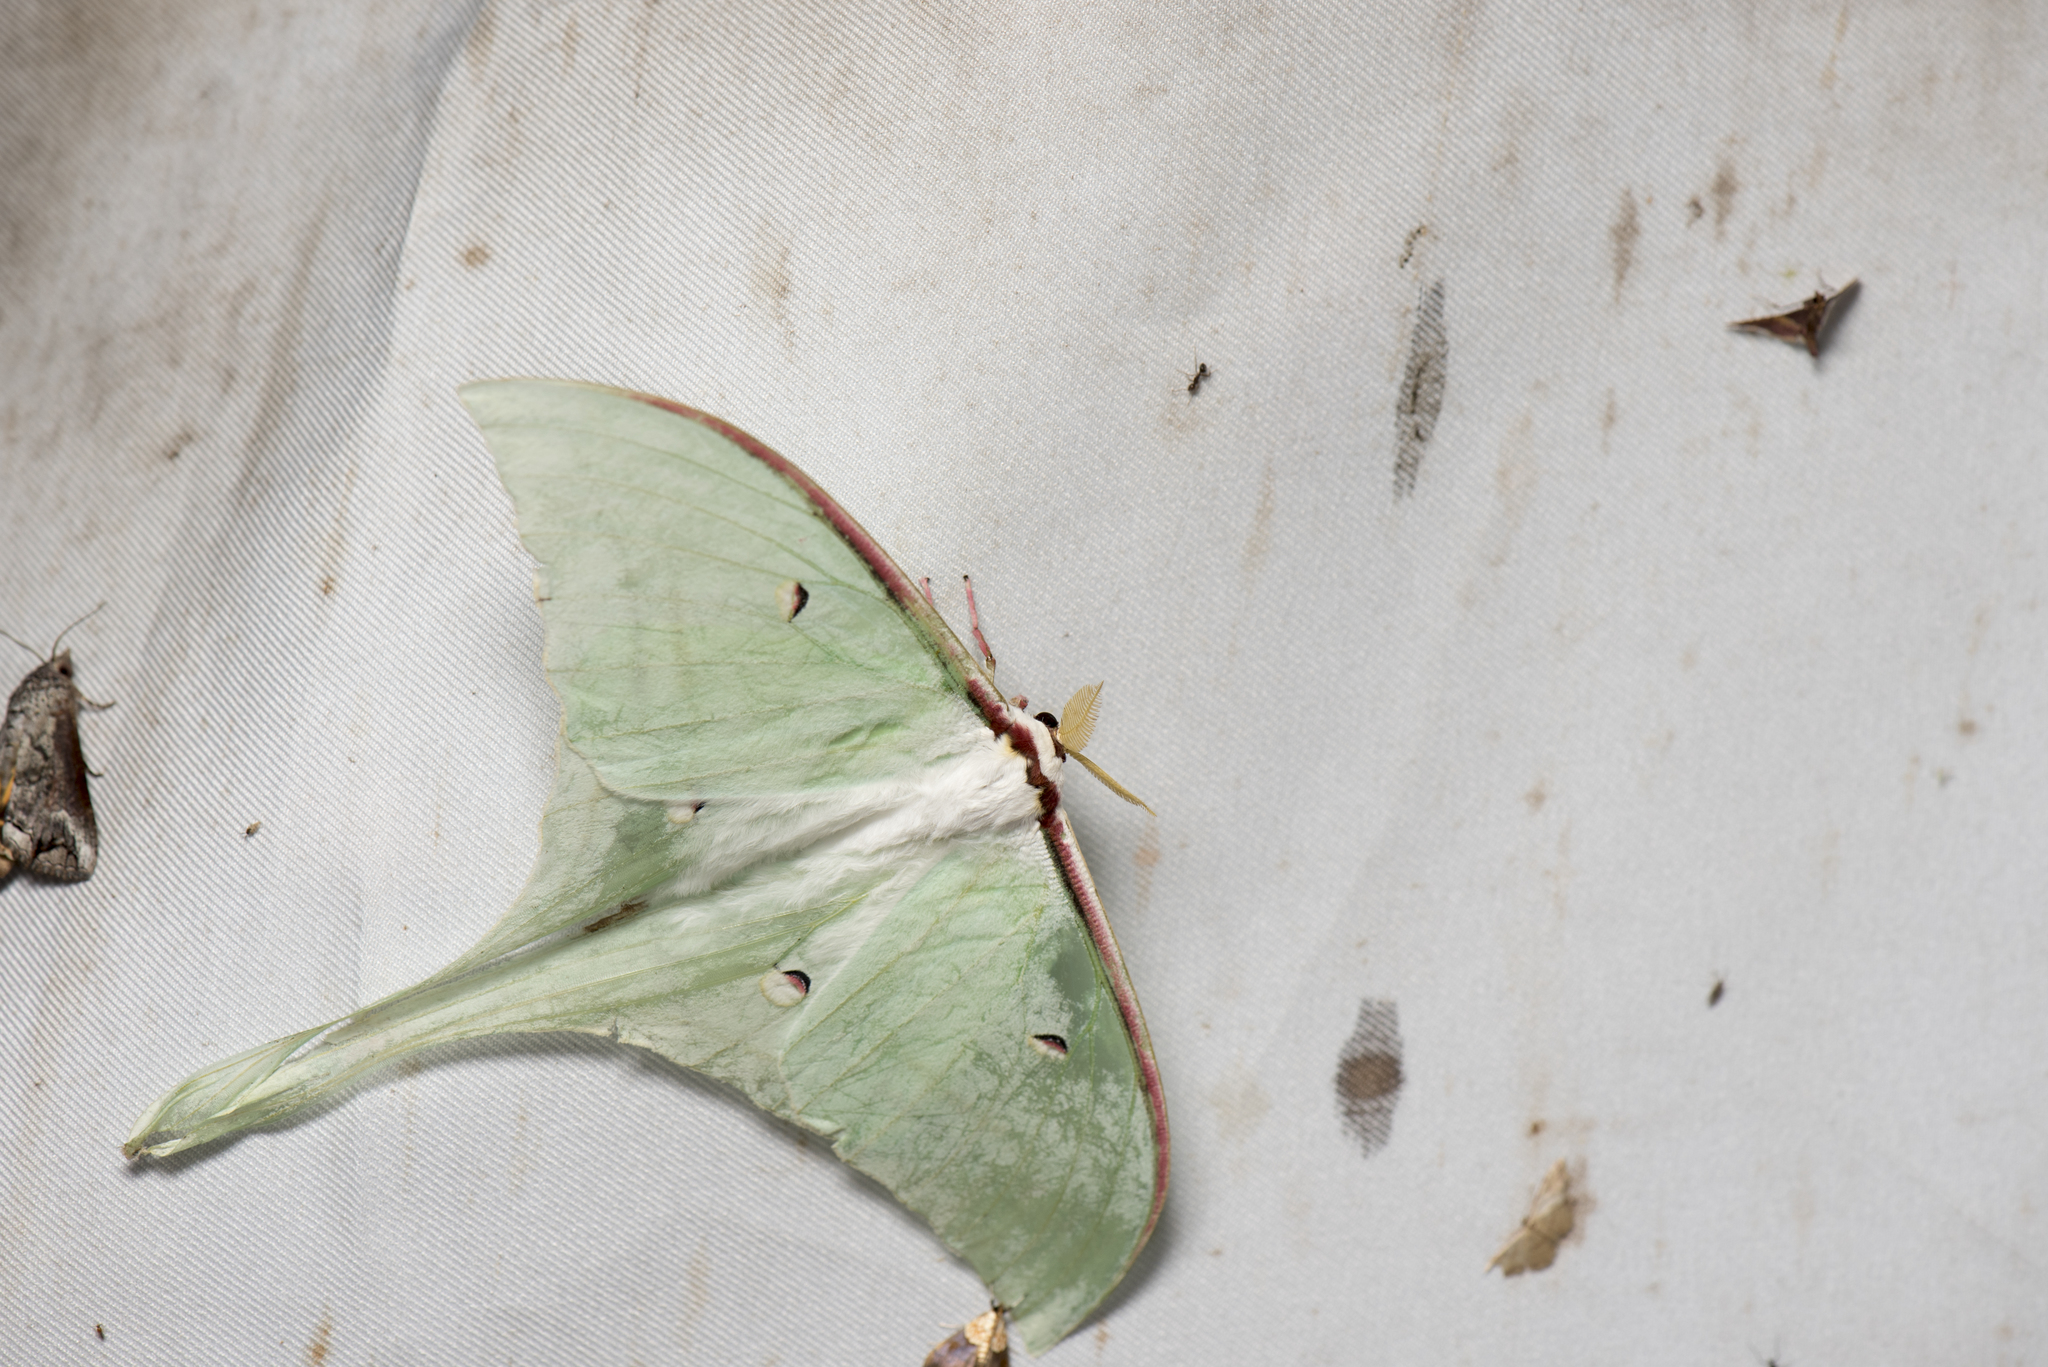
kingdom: Animalia
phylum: Arthropoda
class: Insecta
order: Lepidoptera
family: Saturniidae
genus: Actias
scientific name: Actias ningpoana
